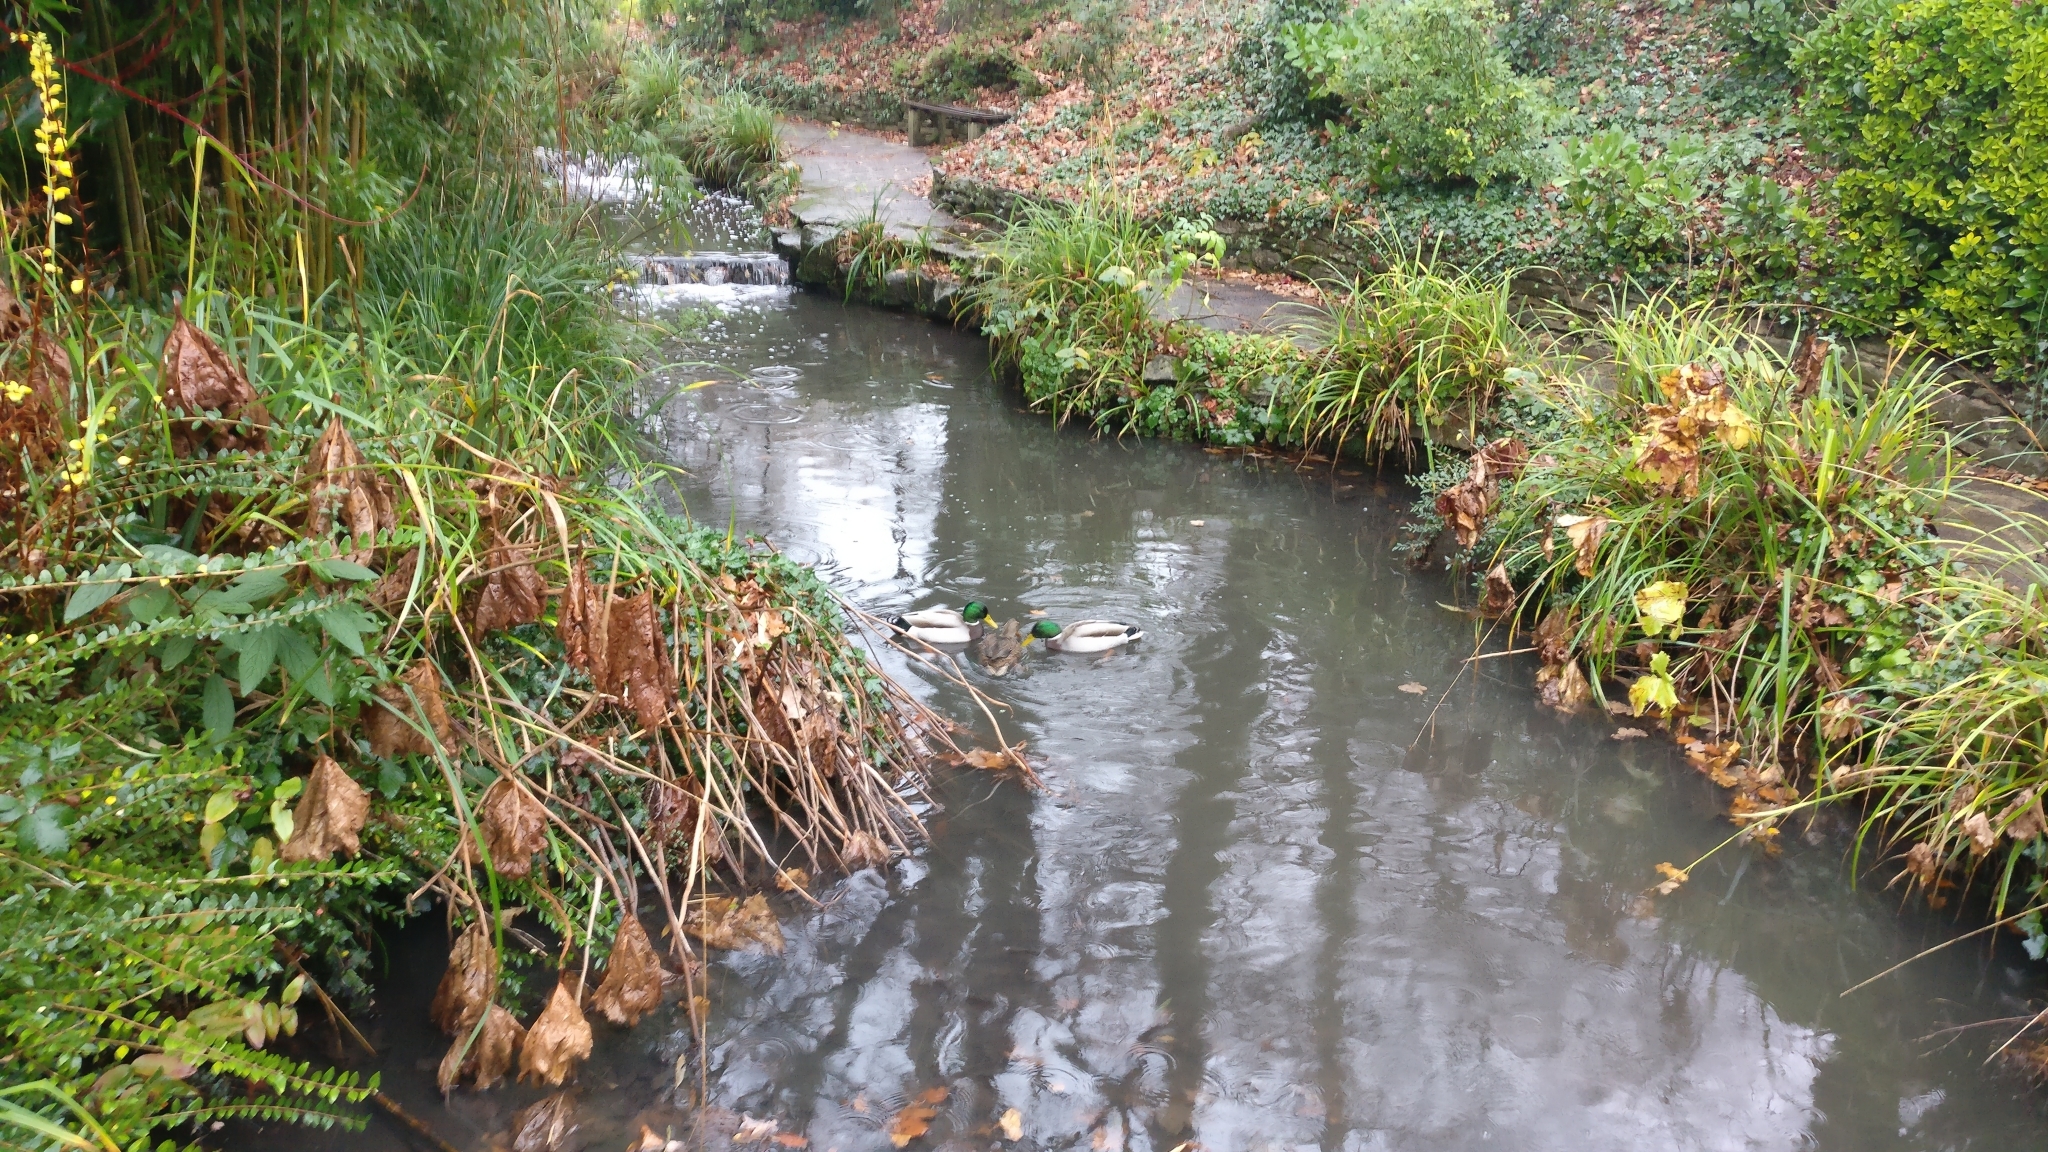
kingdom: Animalia
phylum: Chordata
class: Aves
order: Anseriformes
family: Anatidae
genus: Anas
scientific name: Anas platyrhynchos
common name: Mallard
